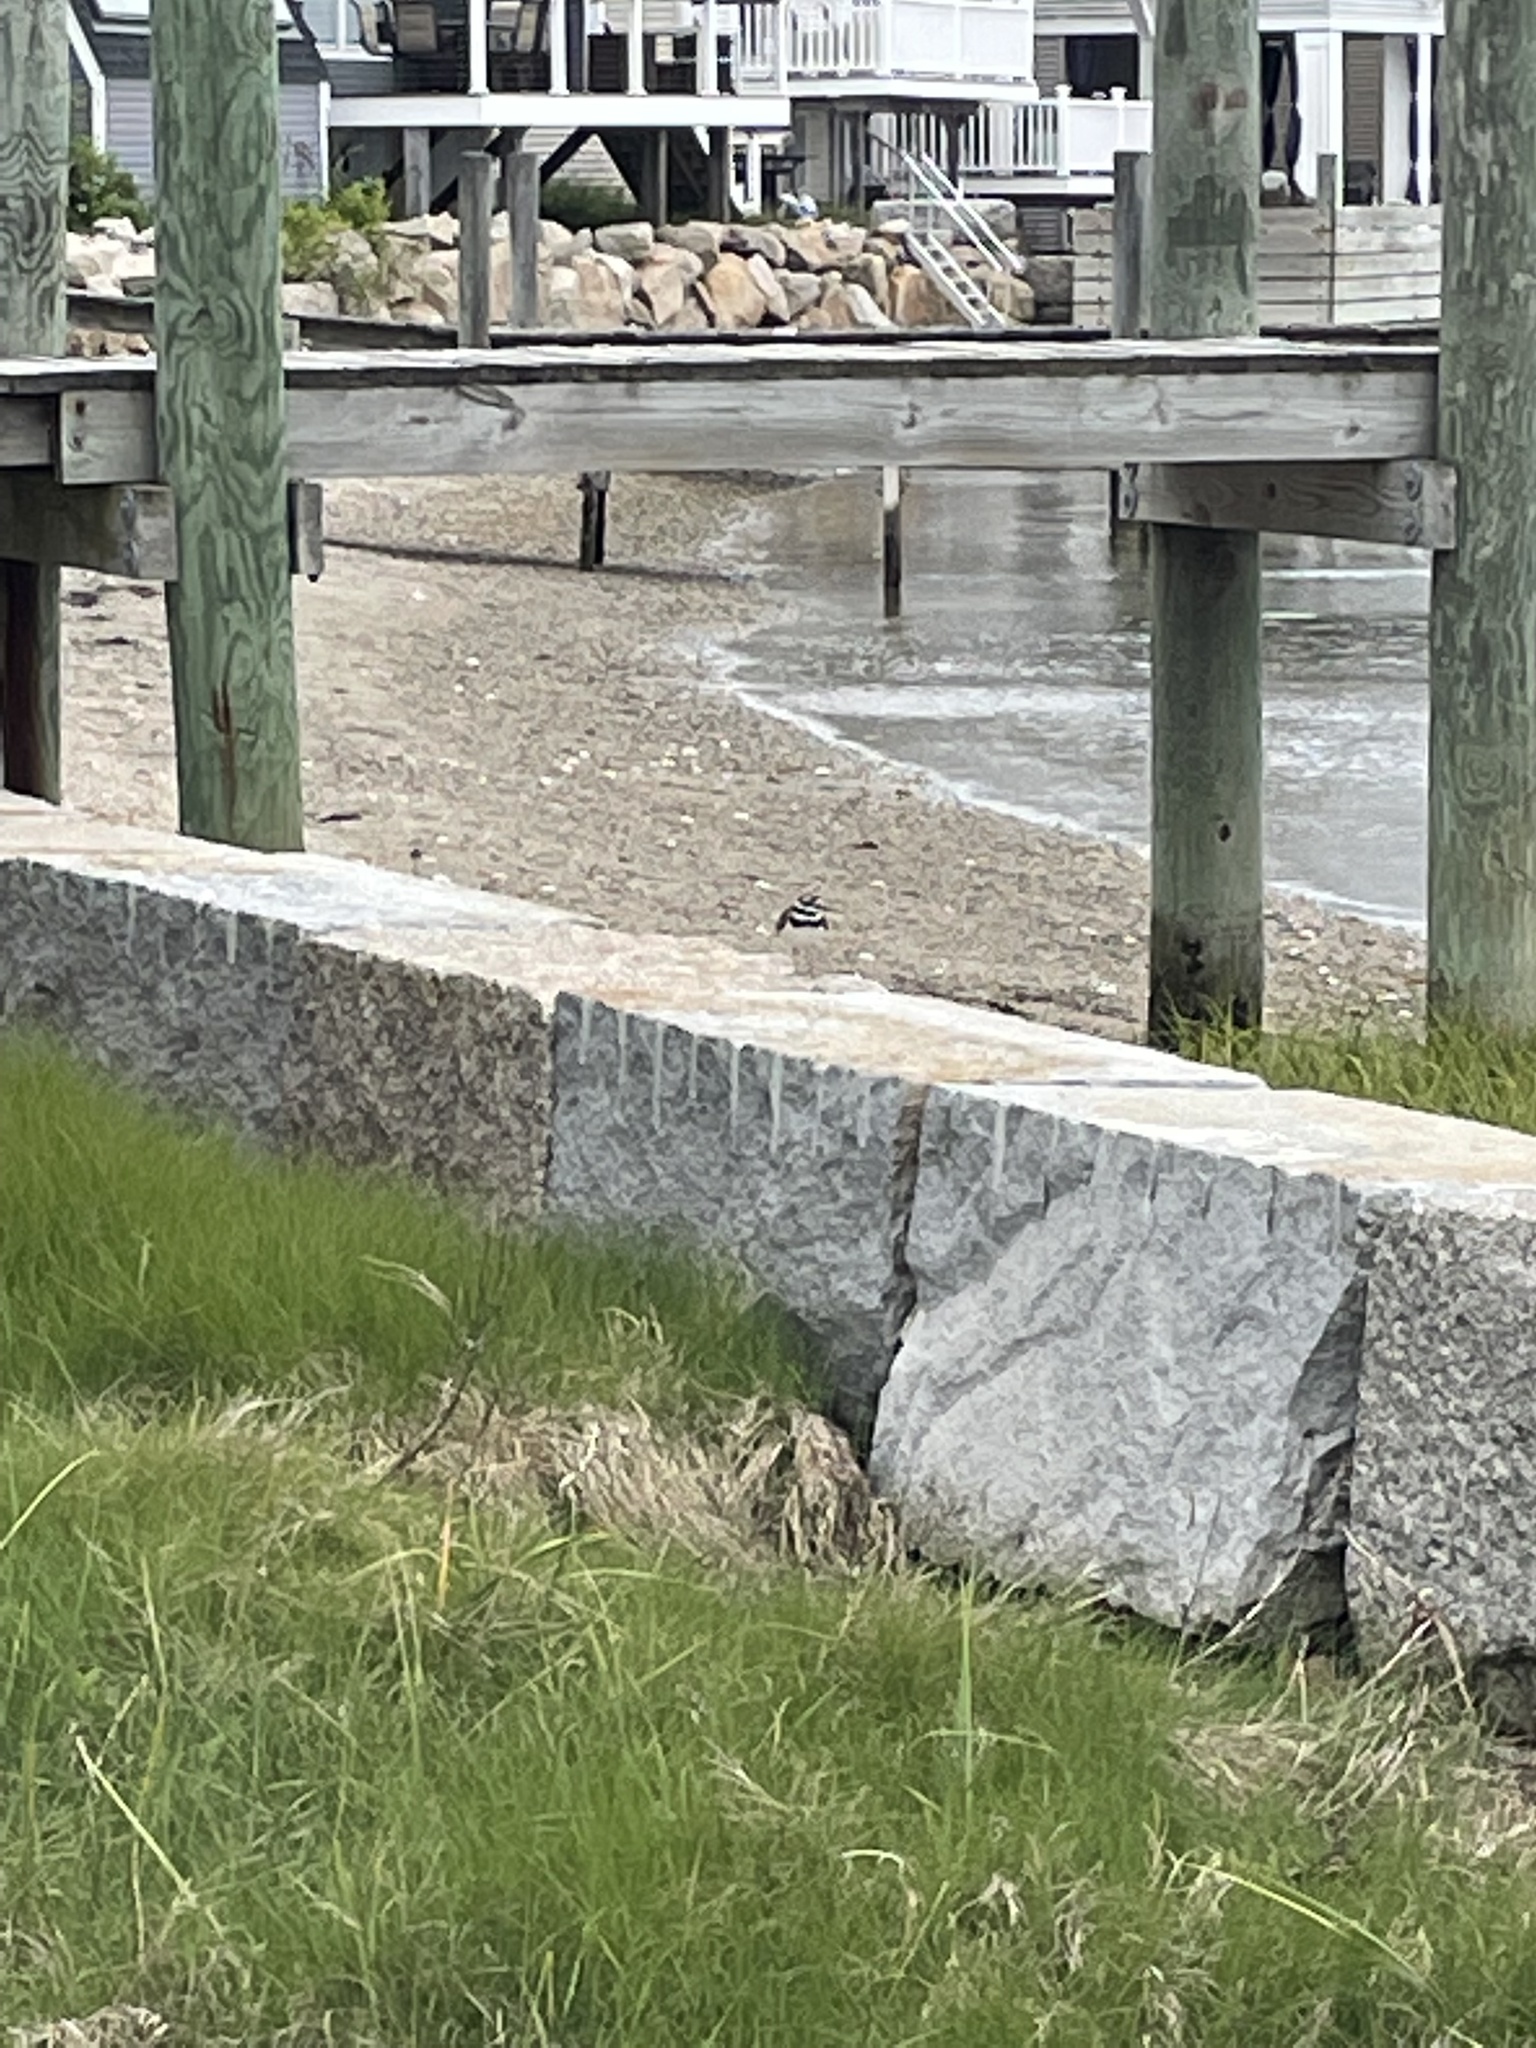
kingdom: Animalia
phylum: Chordata
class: Aves
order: Charadriiformes
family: Charadriidae
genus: Charadrius
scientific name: Charadrius vociferus
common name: Killdeer
